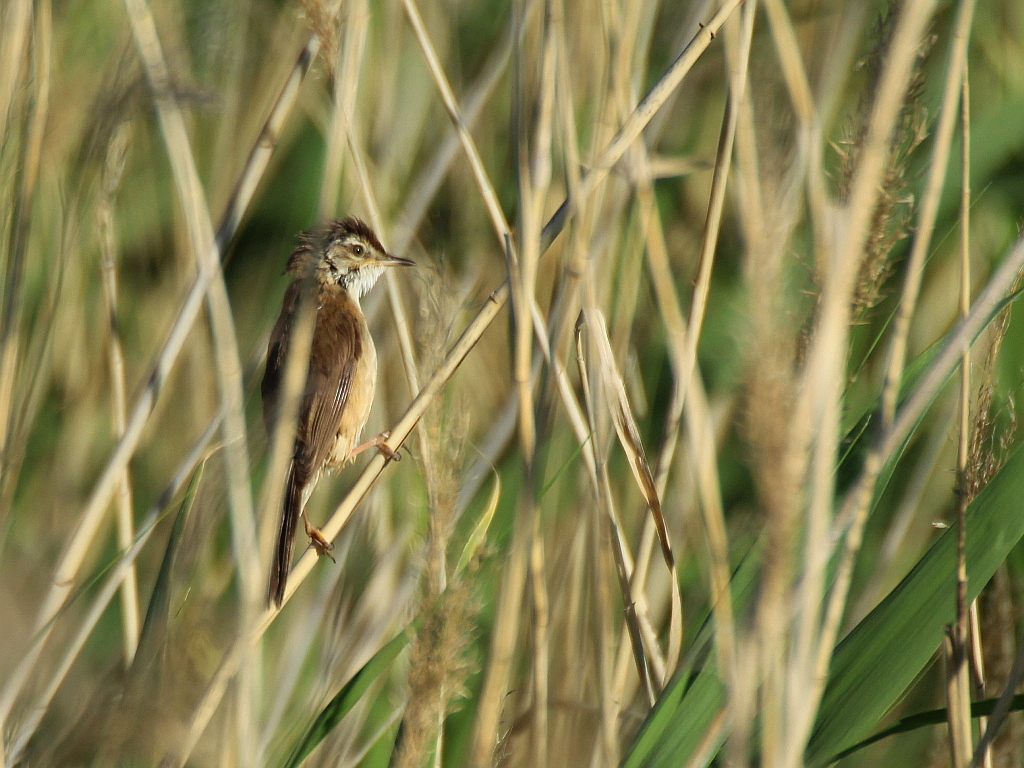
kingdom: Animalia
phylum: Chordata
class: Aves
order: Passeriformes
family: Acrocephalidae
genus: Acrocephalus
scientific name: Acrocephalus agricola
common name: Paddyfield warbler
